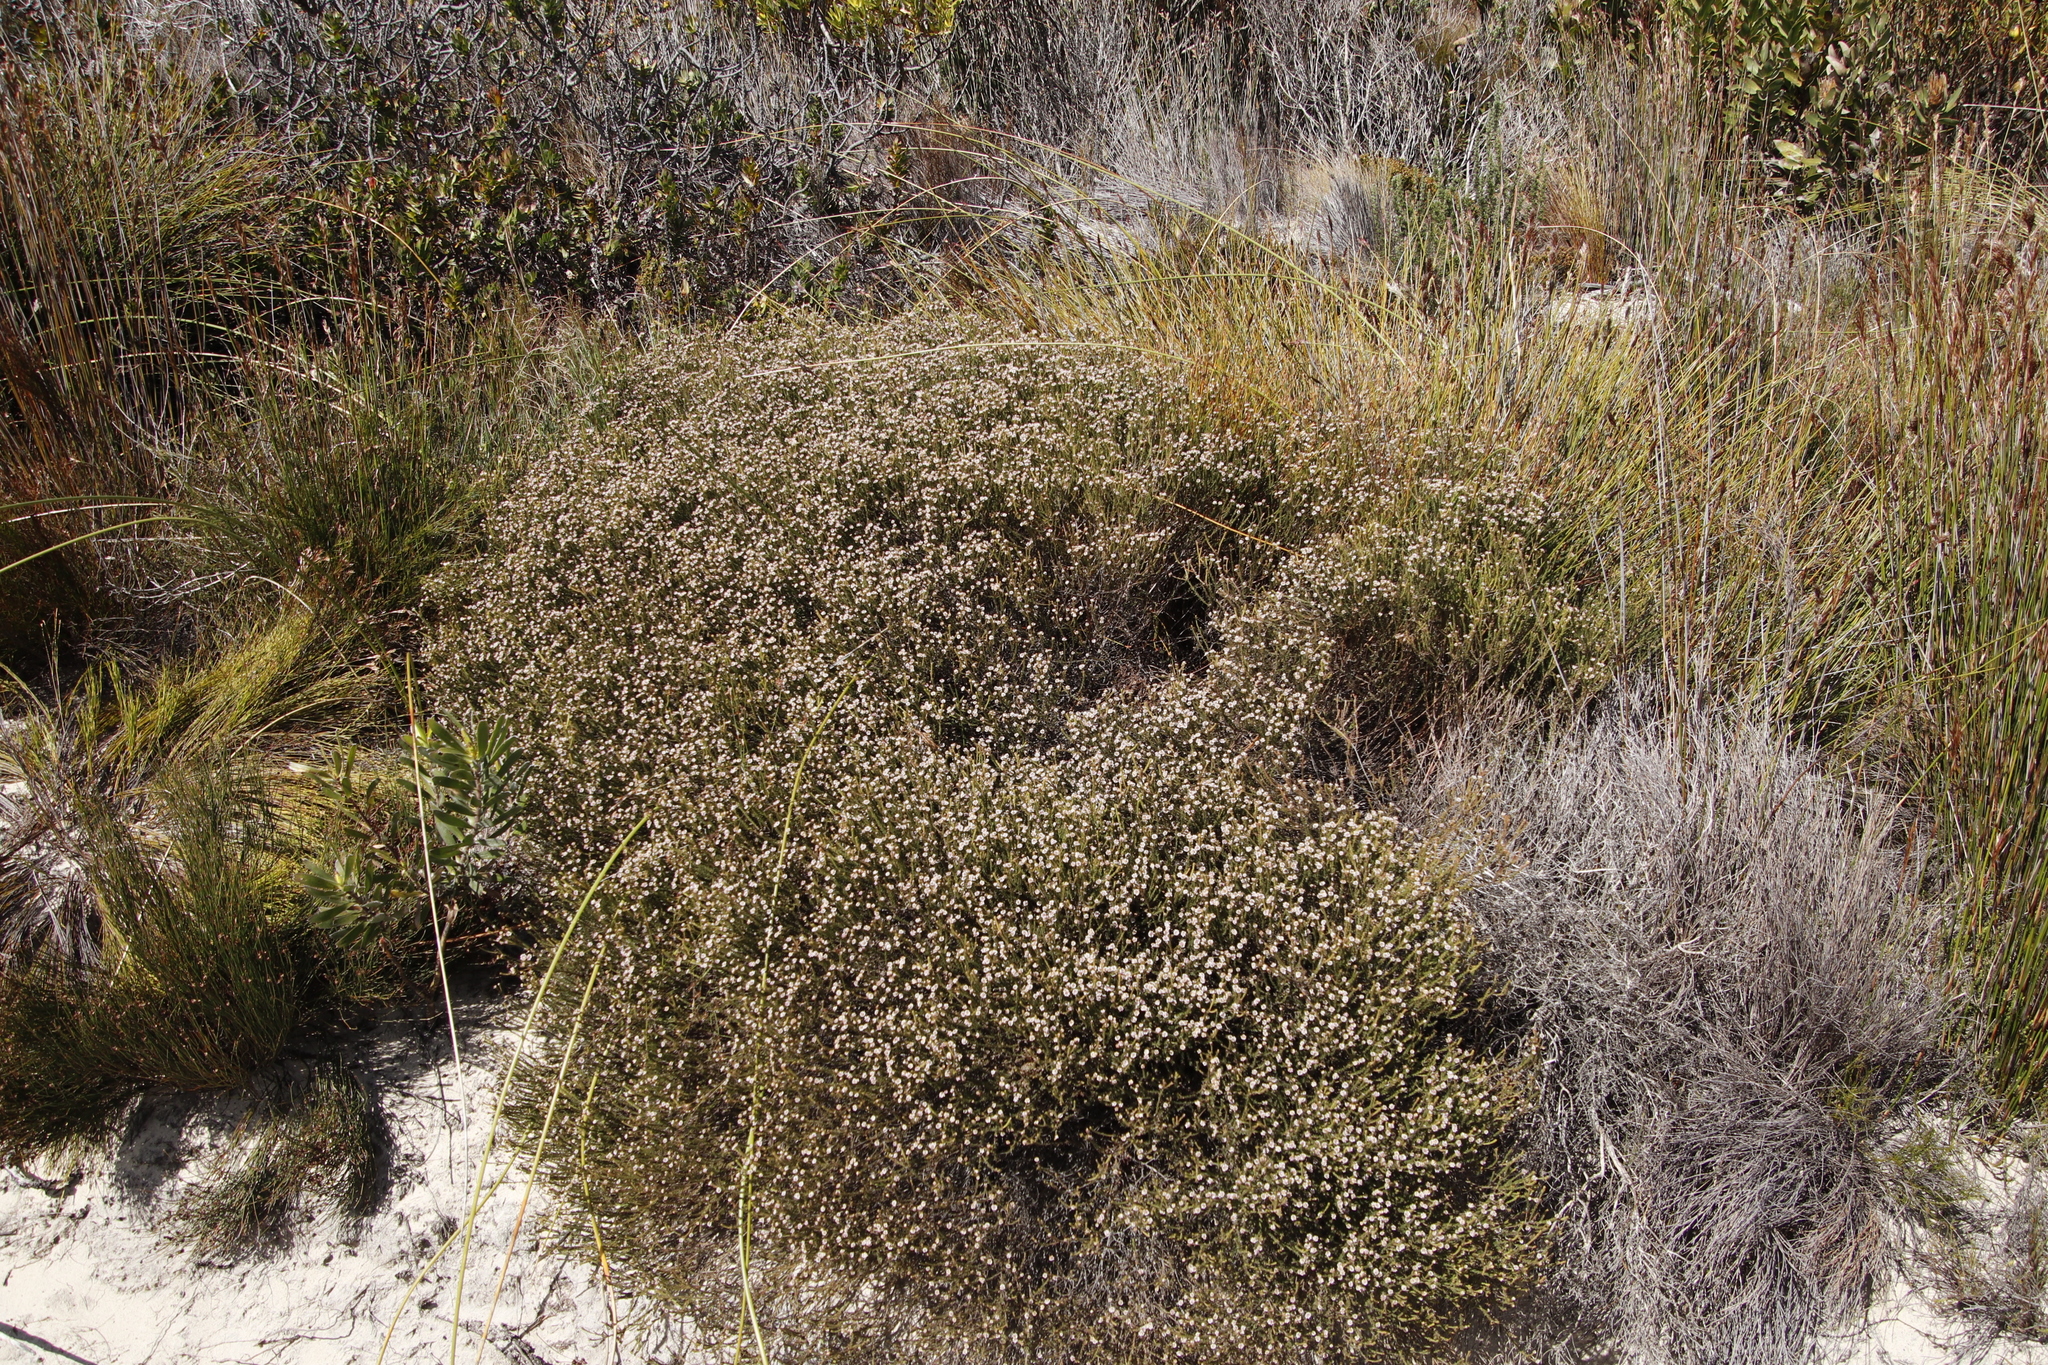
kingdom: Plantae
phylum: Tracheophyta
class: Magnoliopsida
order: Bruniales
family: Bruniaceae
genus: Staavia
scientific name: Staavia radiata
